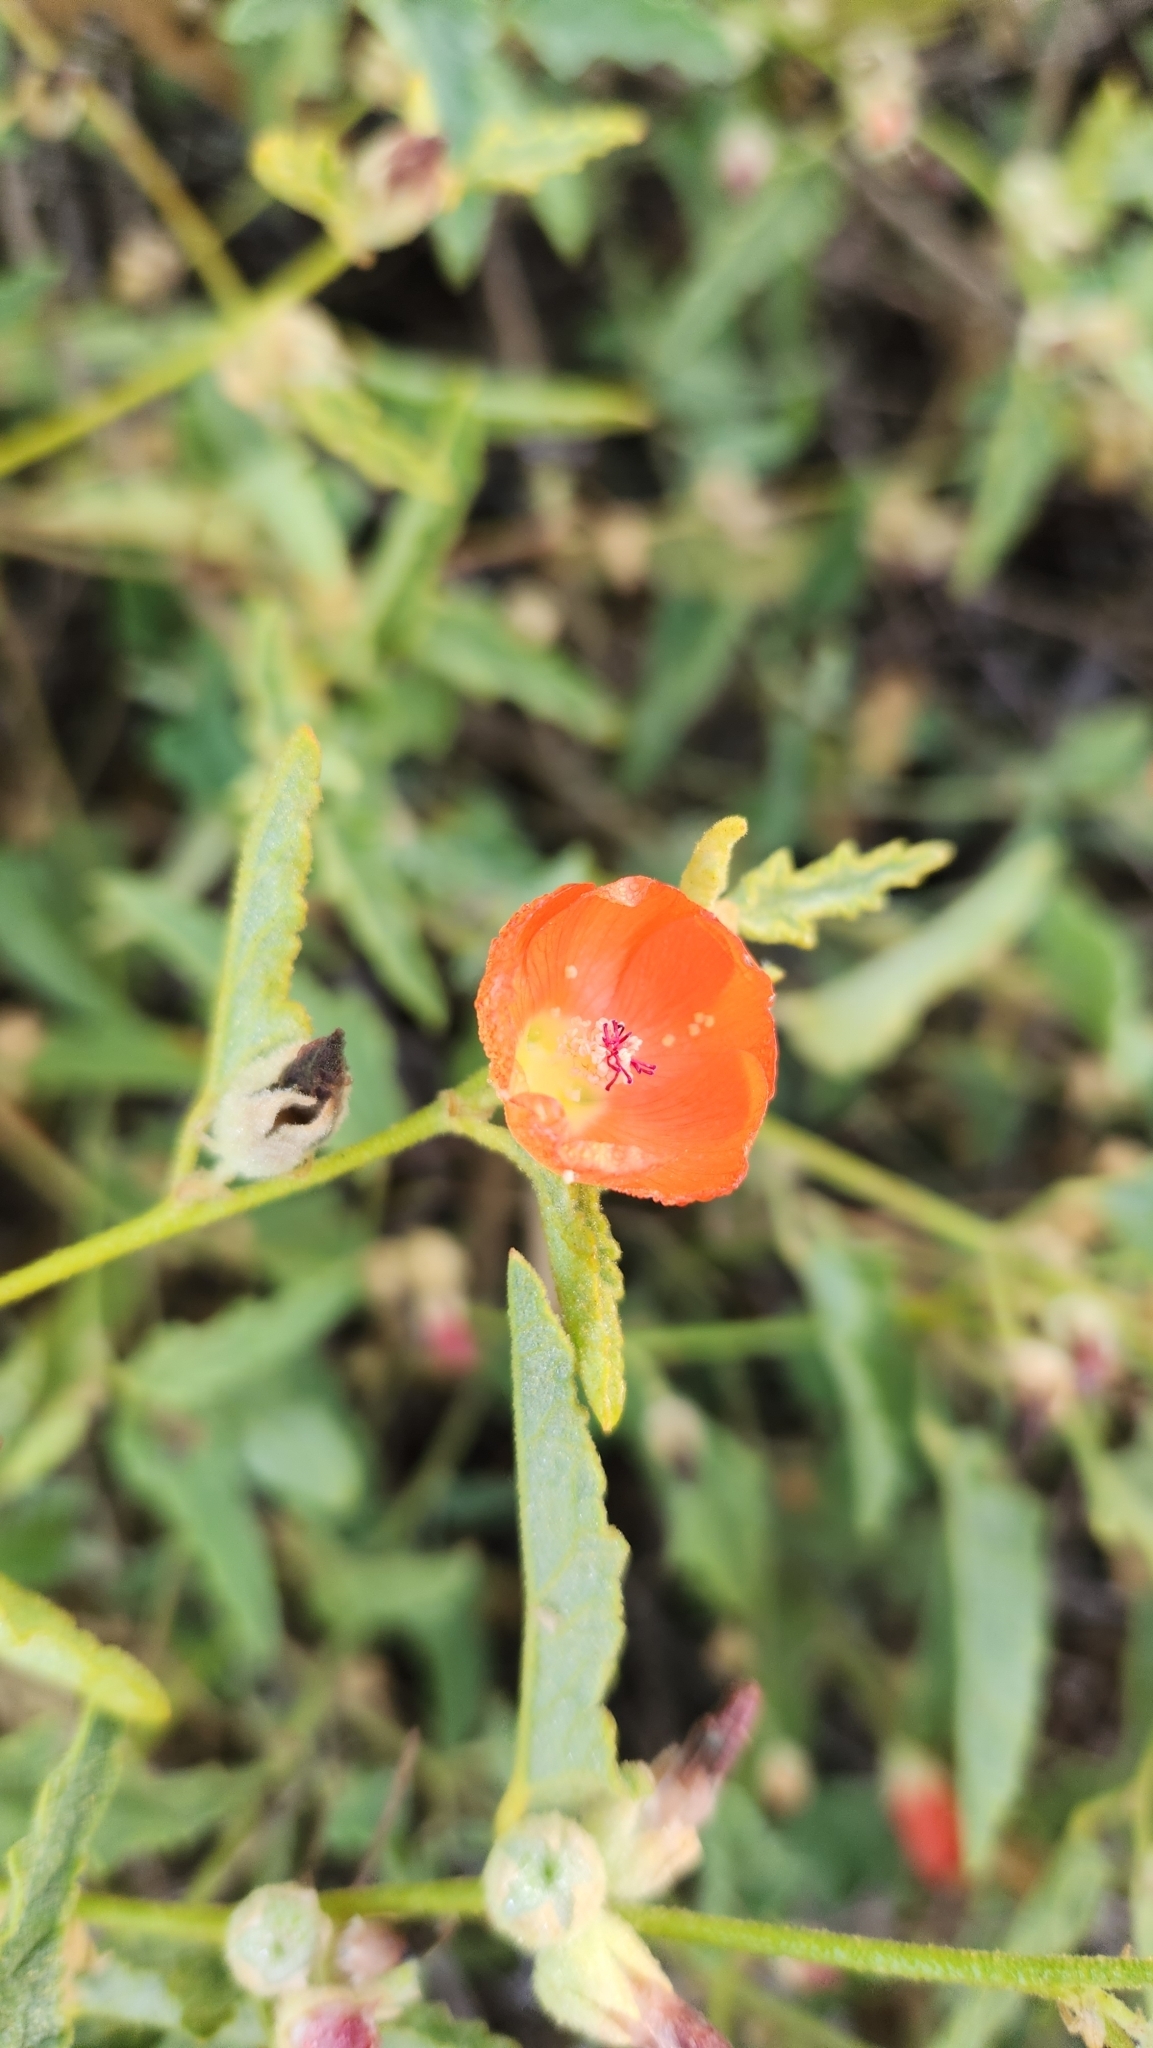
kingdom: Plantae
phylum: Tracheophyta
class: Magnoliopsida
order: Malvales
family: Malvaceae
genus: Sphaeralcea
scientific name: Sphaeralcea hastulata
